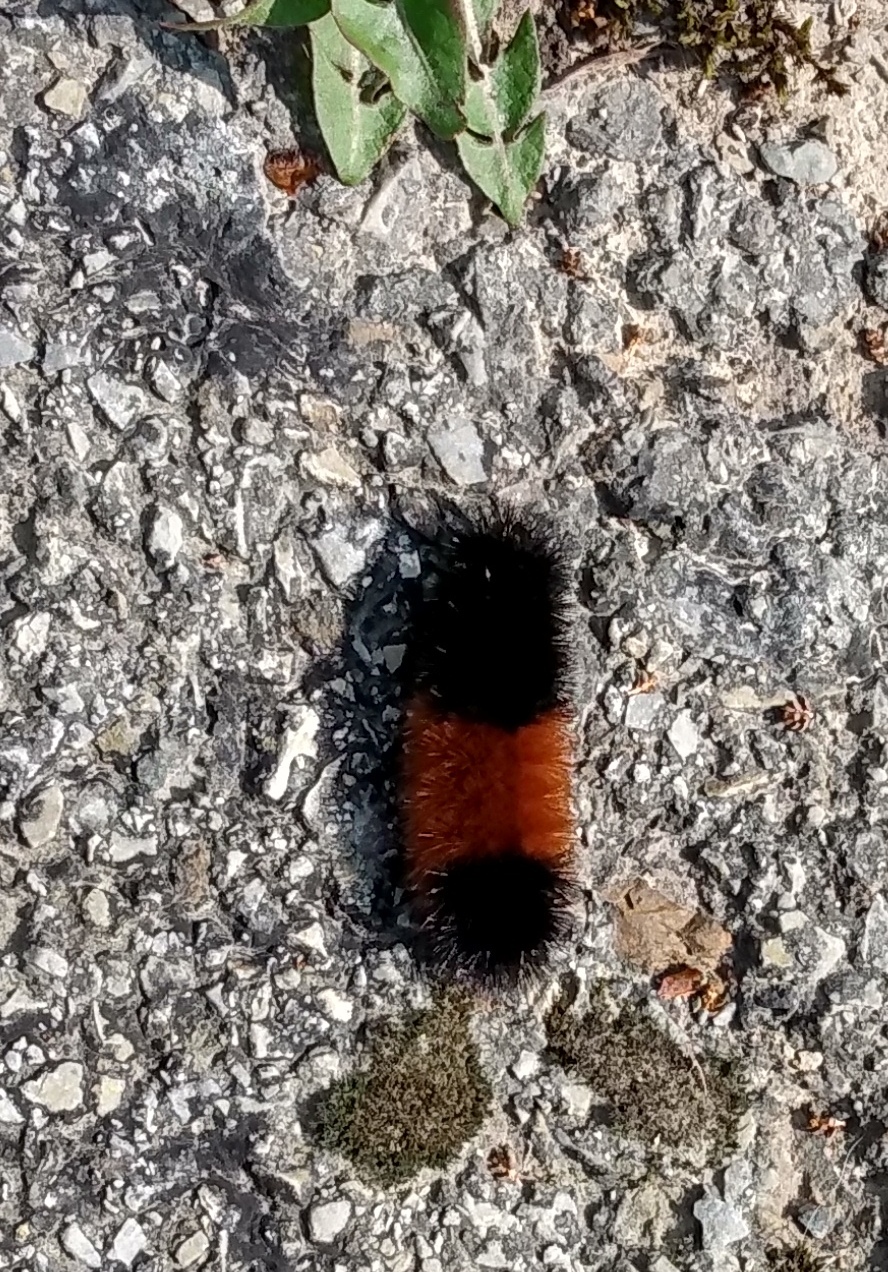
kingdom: Animalia
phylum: Arthropoda
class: Insecta
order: Lepidoptera
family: Erebidae
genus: Pyrrharctia
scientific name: Pyrrharctia isabella
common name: Isabella tiger moth
